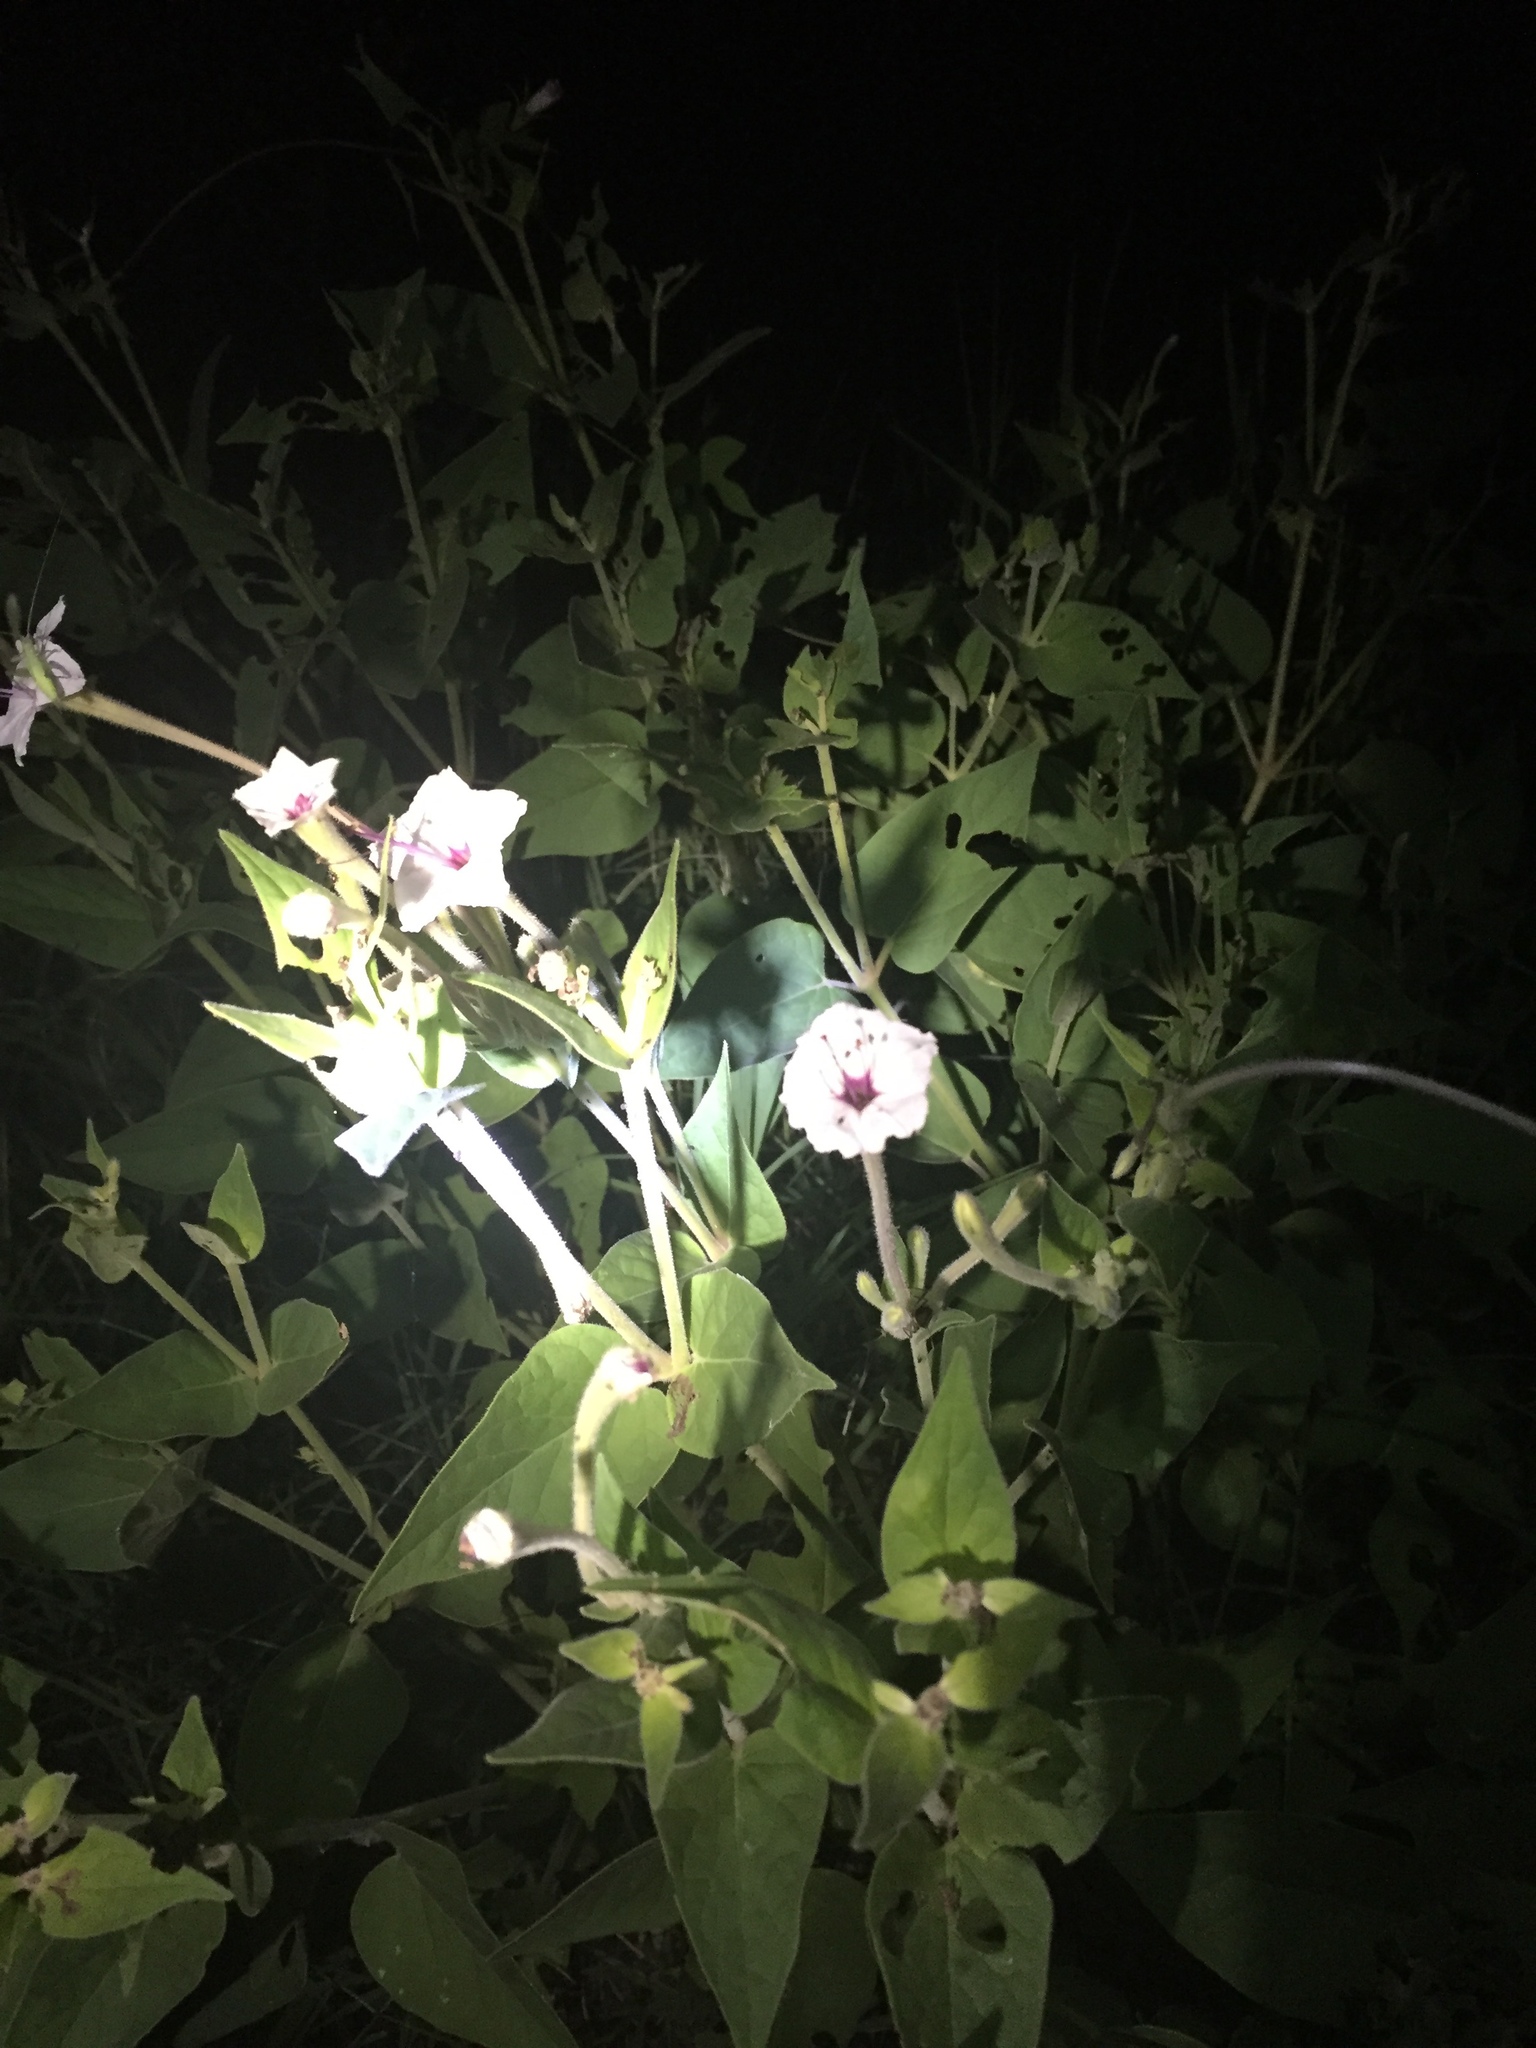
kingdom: Plantae
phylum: Tracheophyta
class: Magnoliopsida
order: Caryophyllales
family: Nyctaginaceae
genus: Mirabilis
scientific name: Mirabilis longiflora
